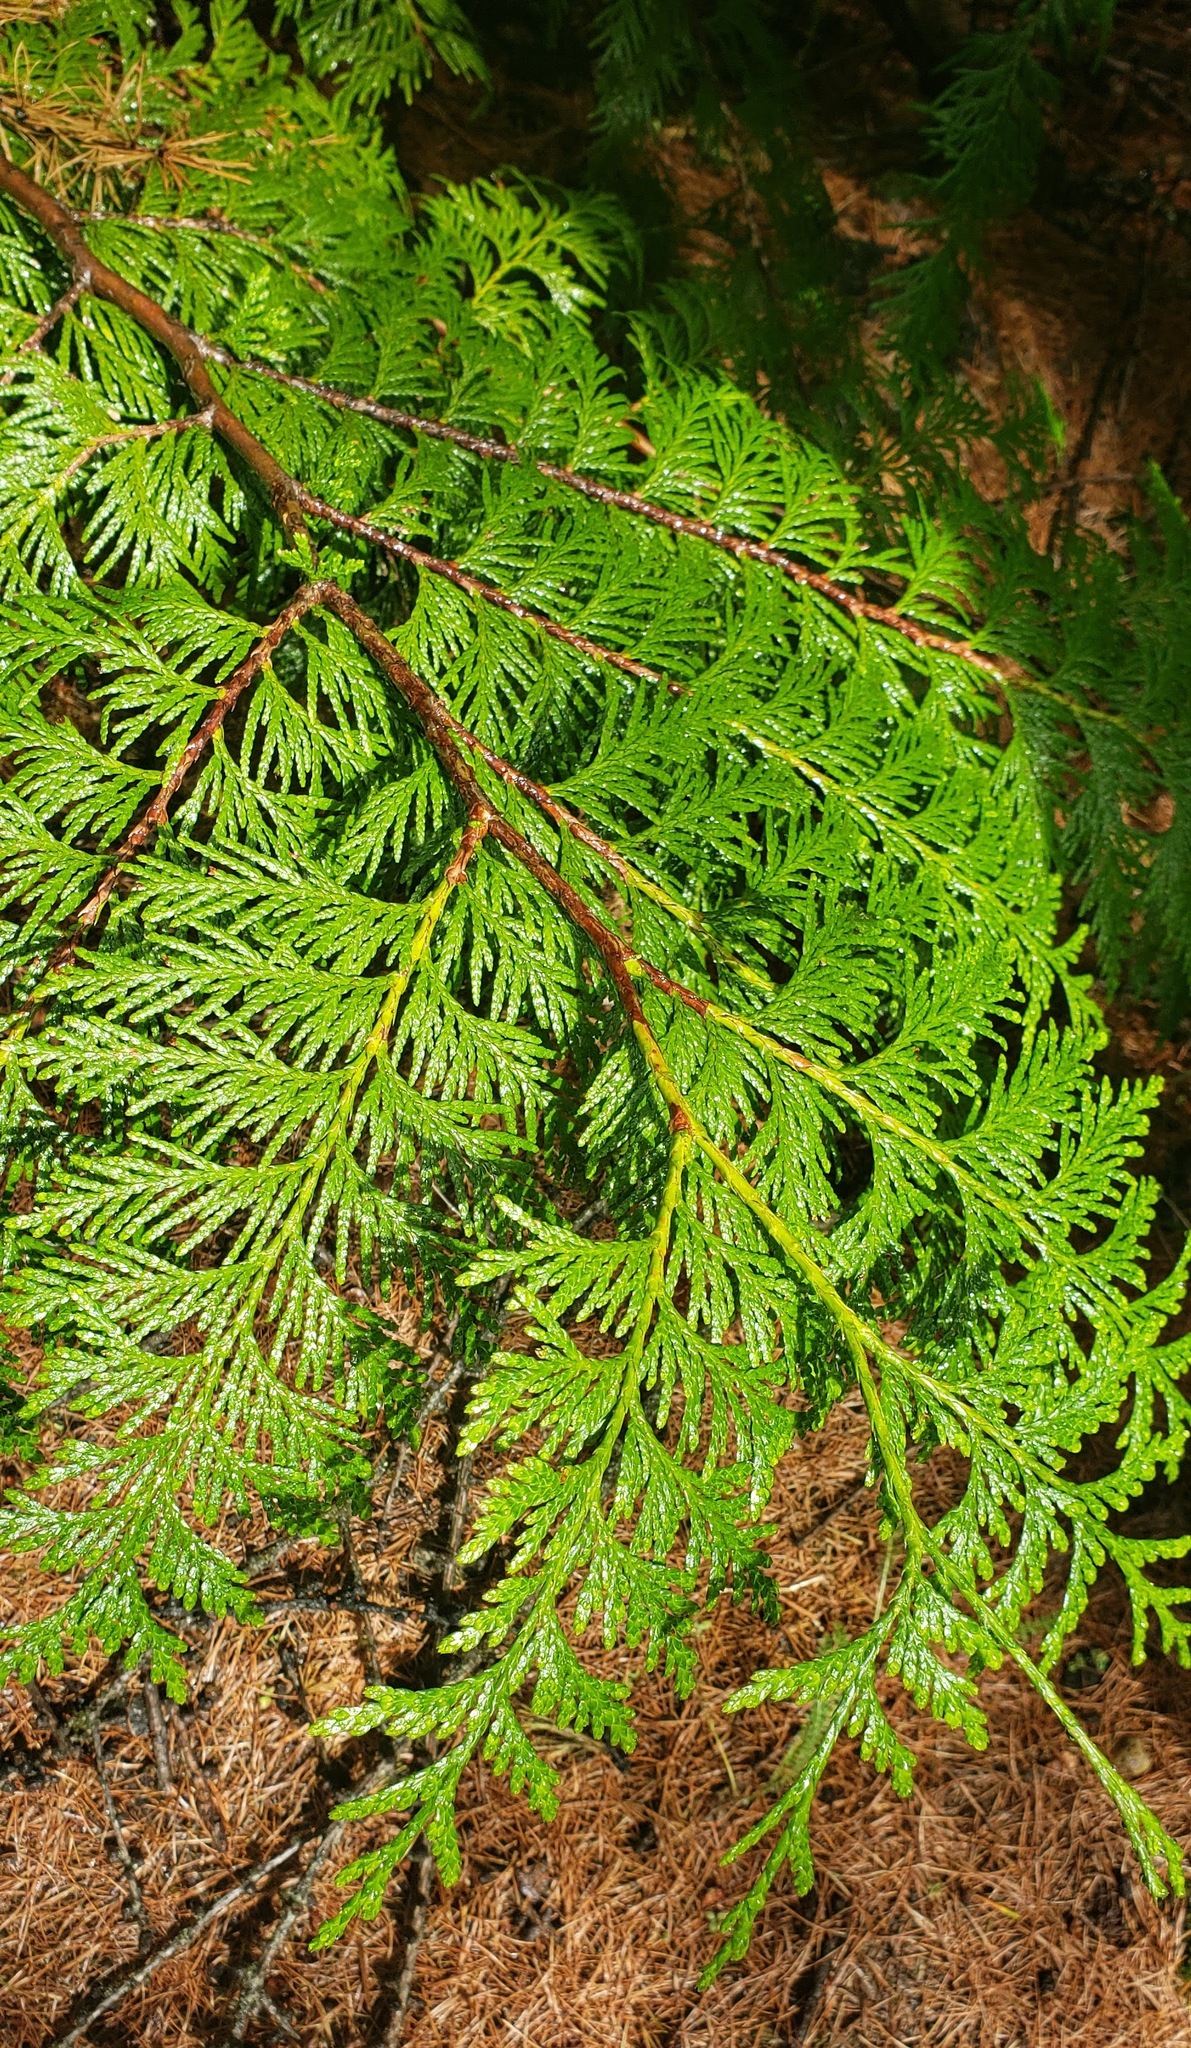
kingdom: Plantae
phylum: Tracheophyta
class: Pinopsida
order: Pinales
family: Cupressaceae
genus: Thuja
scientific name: Thuja plicata
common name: Western red-cedar
